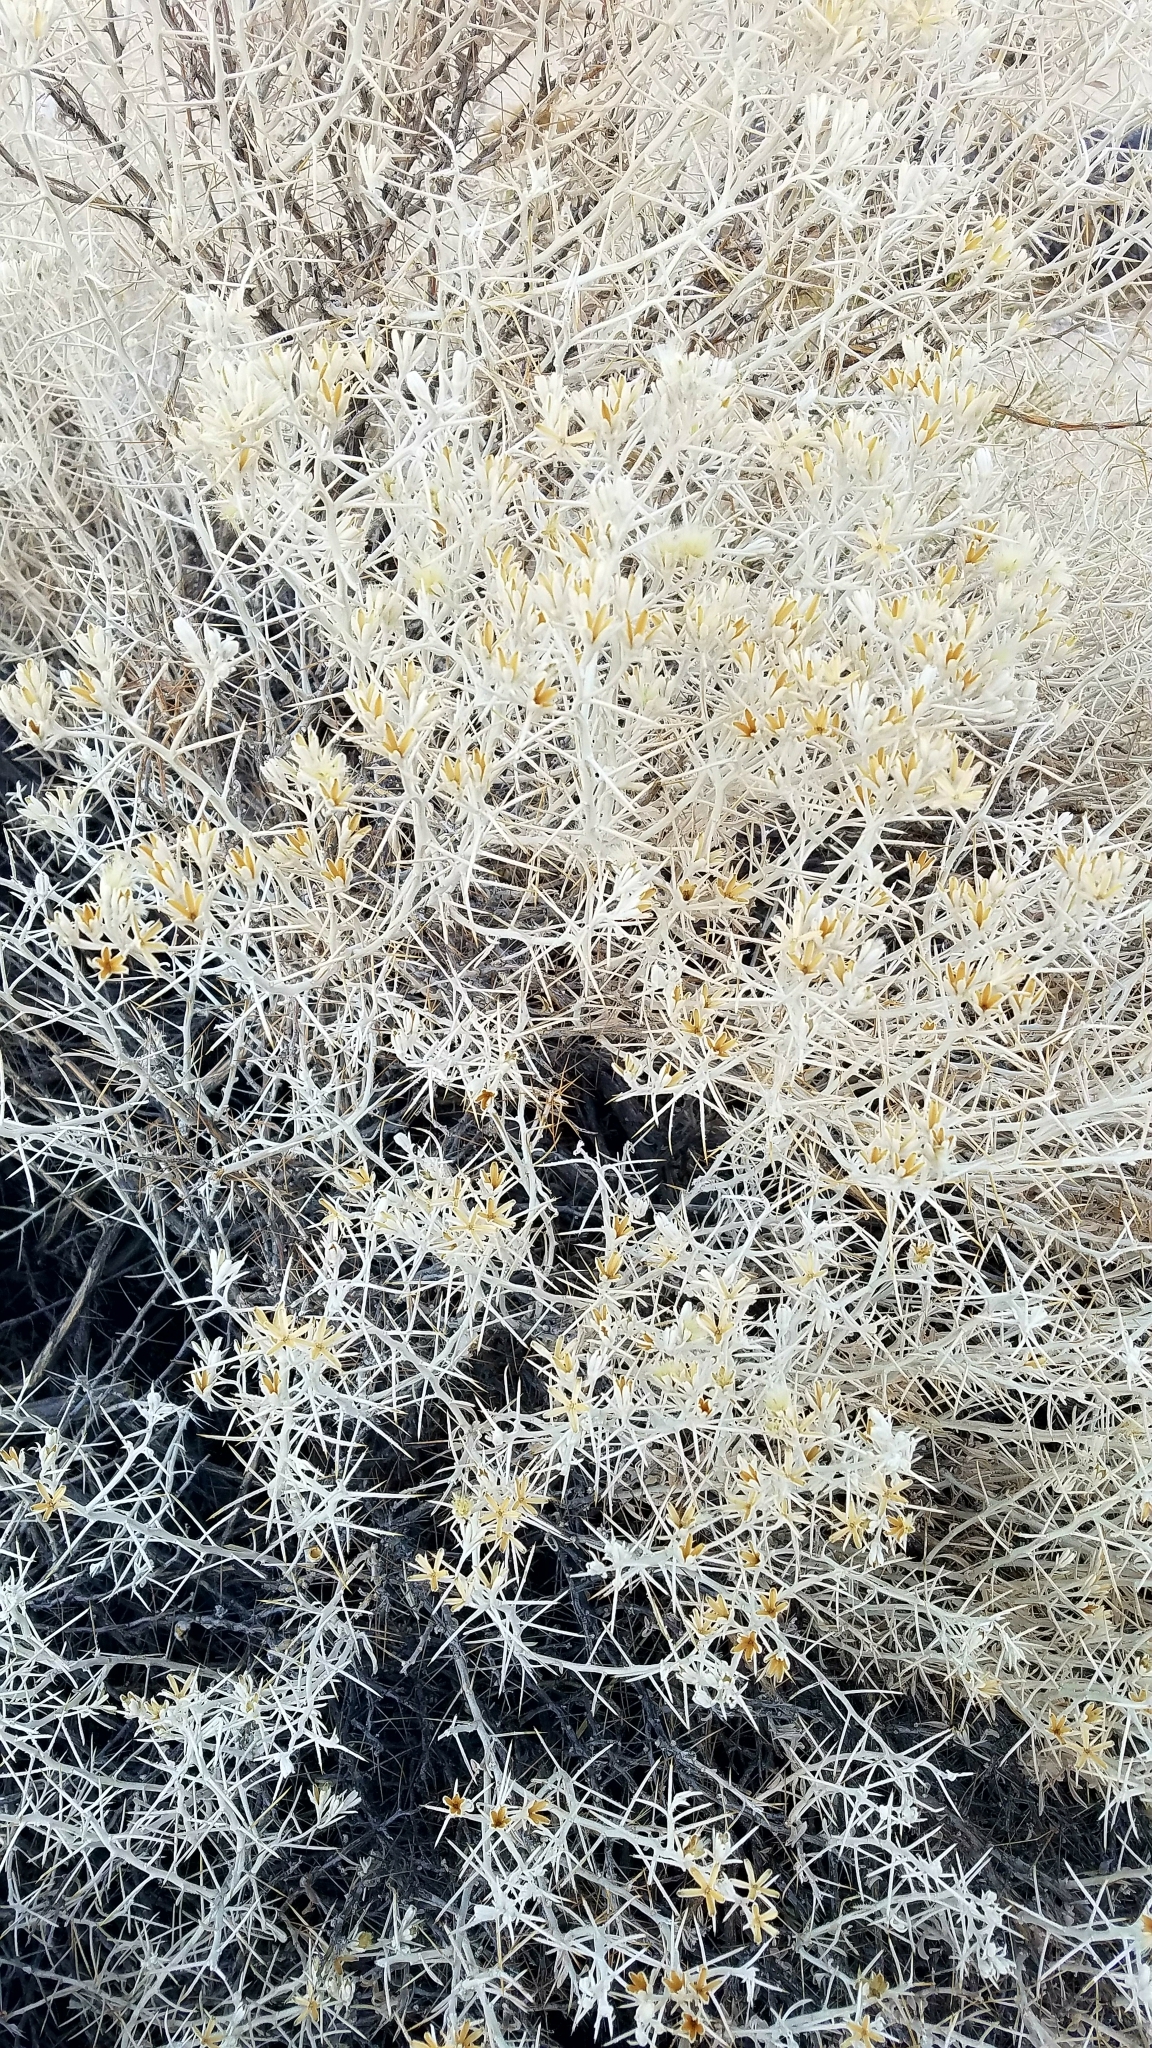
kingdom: Plantae
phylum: Tracheophyta
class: Magnoliopsida
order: Asterales
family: Asteraceae
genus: Tetradymia
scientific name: Tetradymia stenolepis
